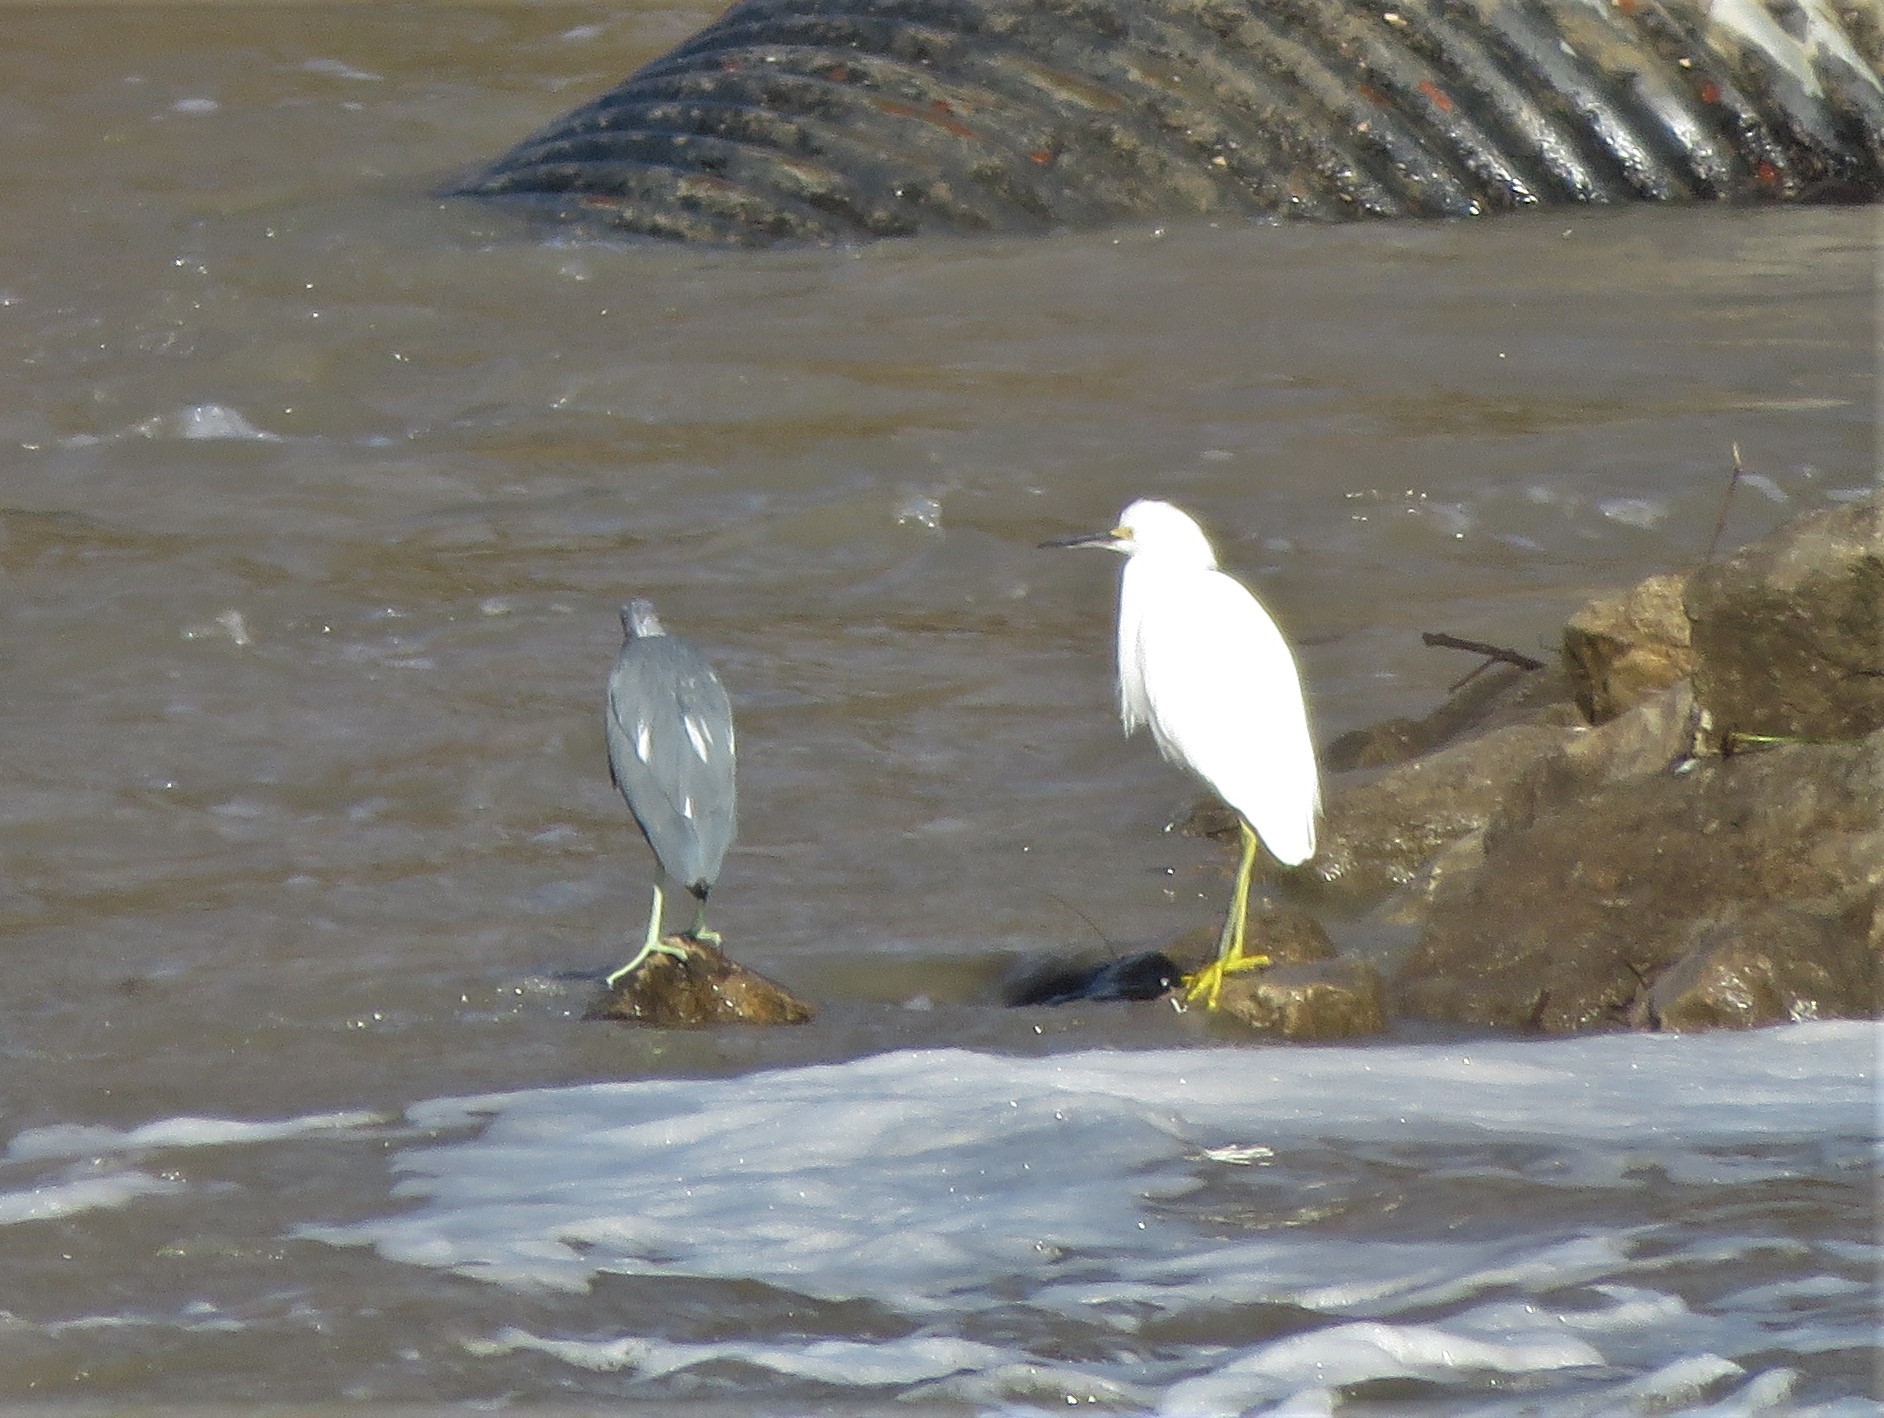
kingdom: Animalia
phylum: Chordata
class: Aves
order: Pelecaniformes
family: Ardeidae
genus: Egretta
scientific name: Egretta caerulea
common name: Little blue heron
